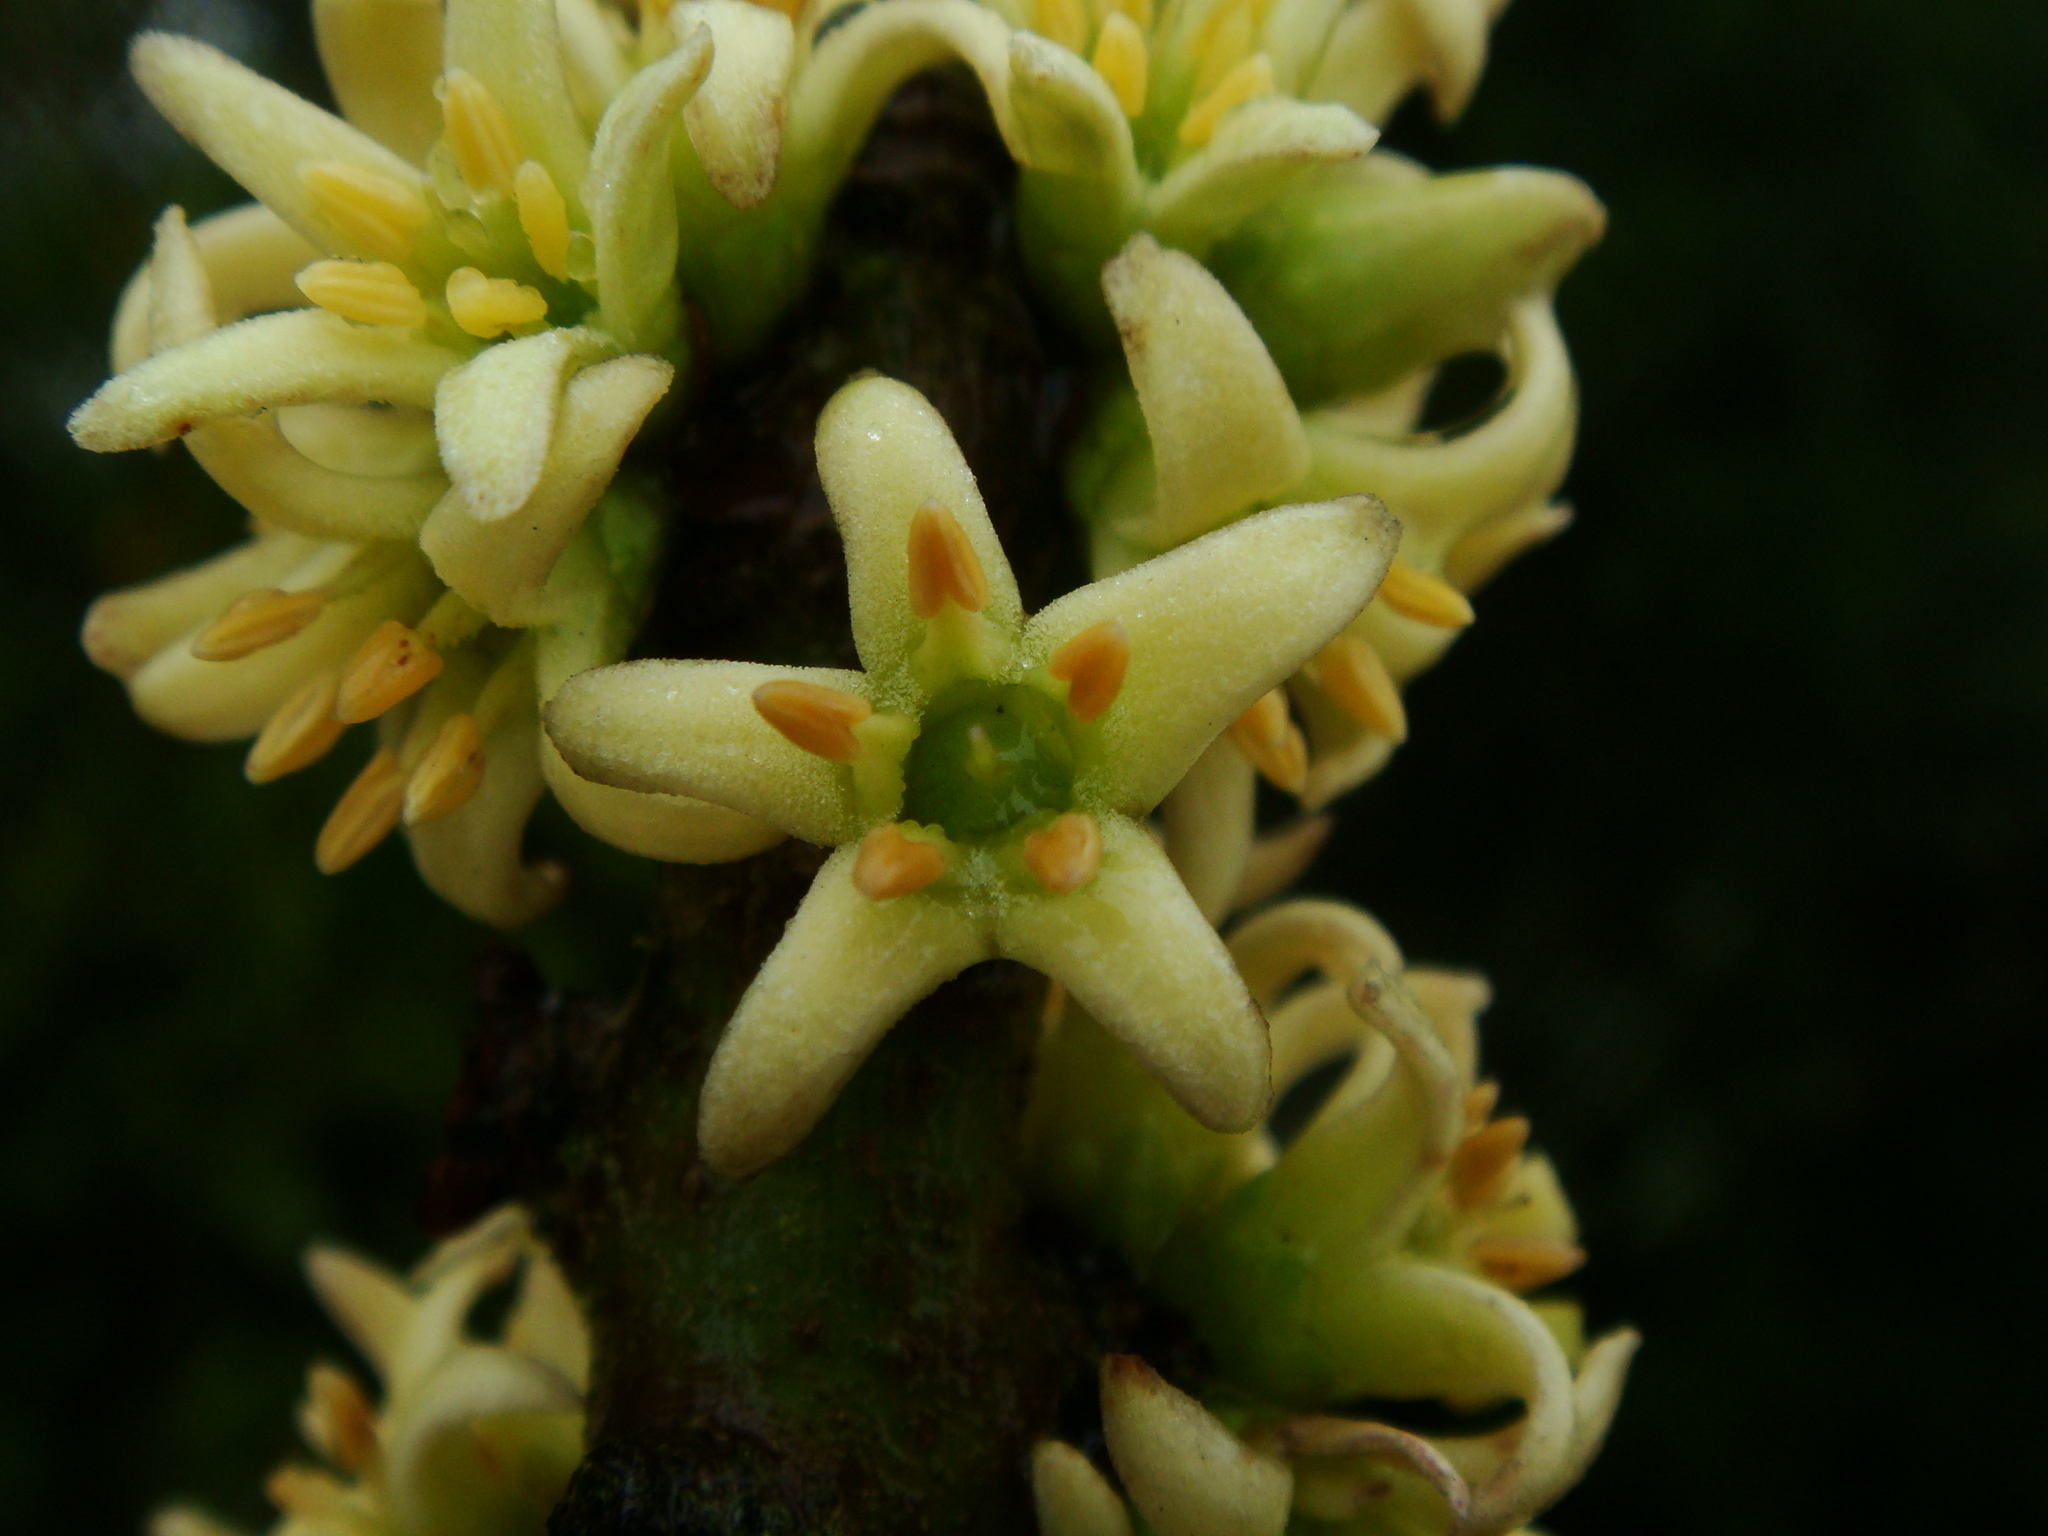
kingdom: Plantae
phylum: Tracheophyta
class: Magnoliopsida
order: Ericales
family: Primulaceae
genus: Pleiomeris
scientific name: Pleiomeris canariensis
